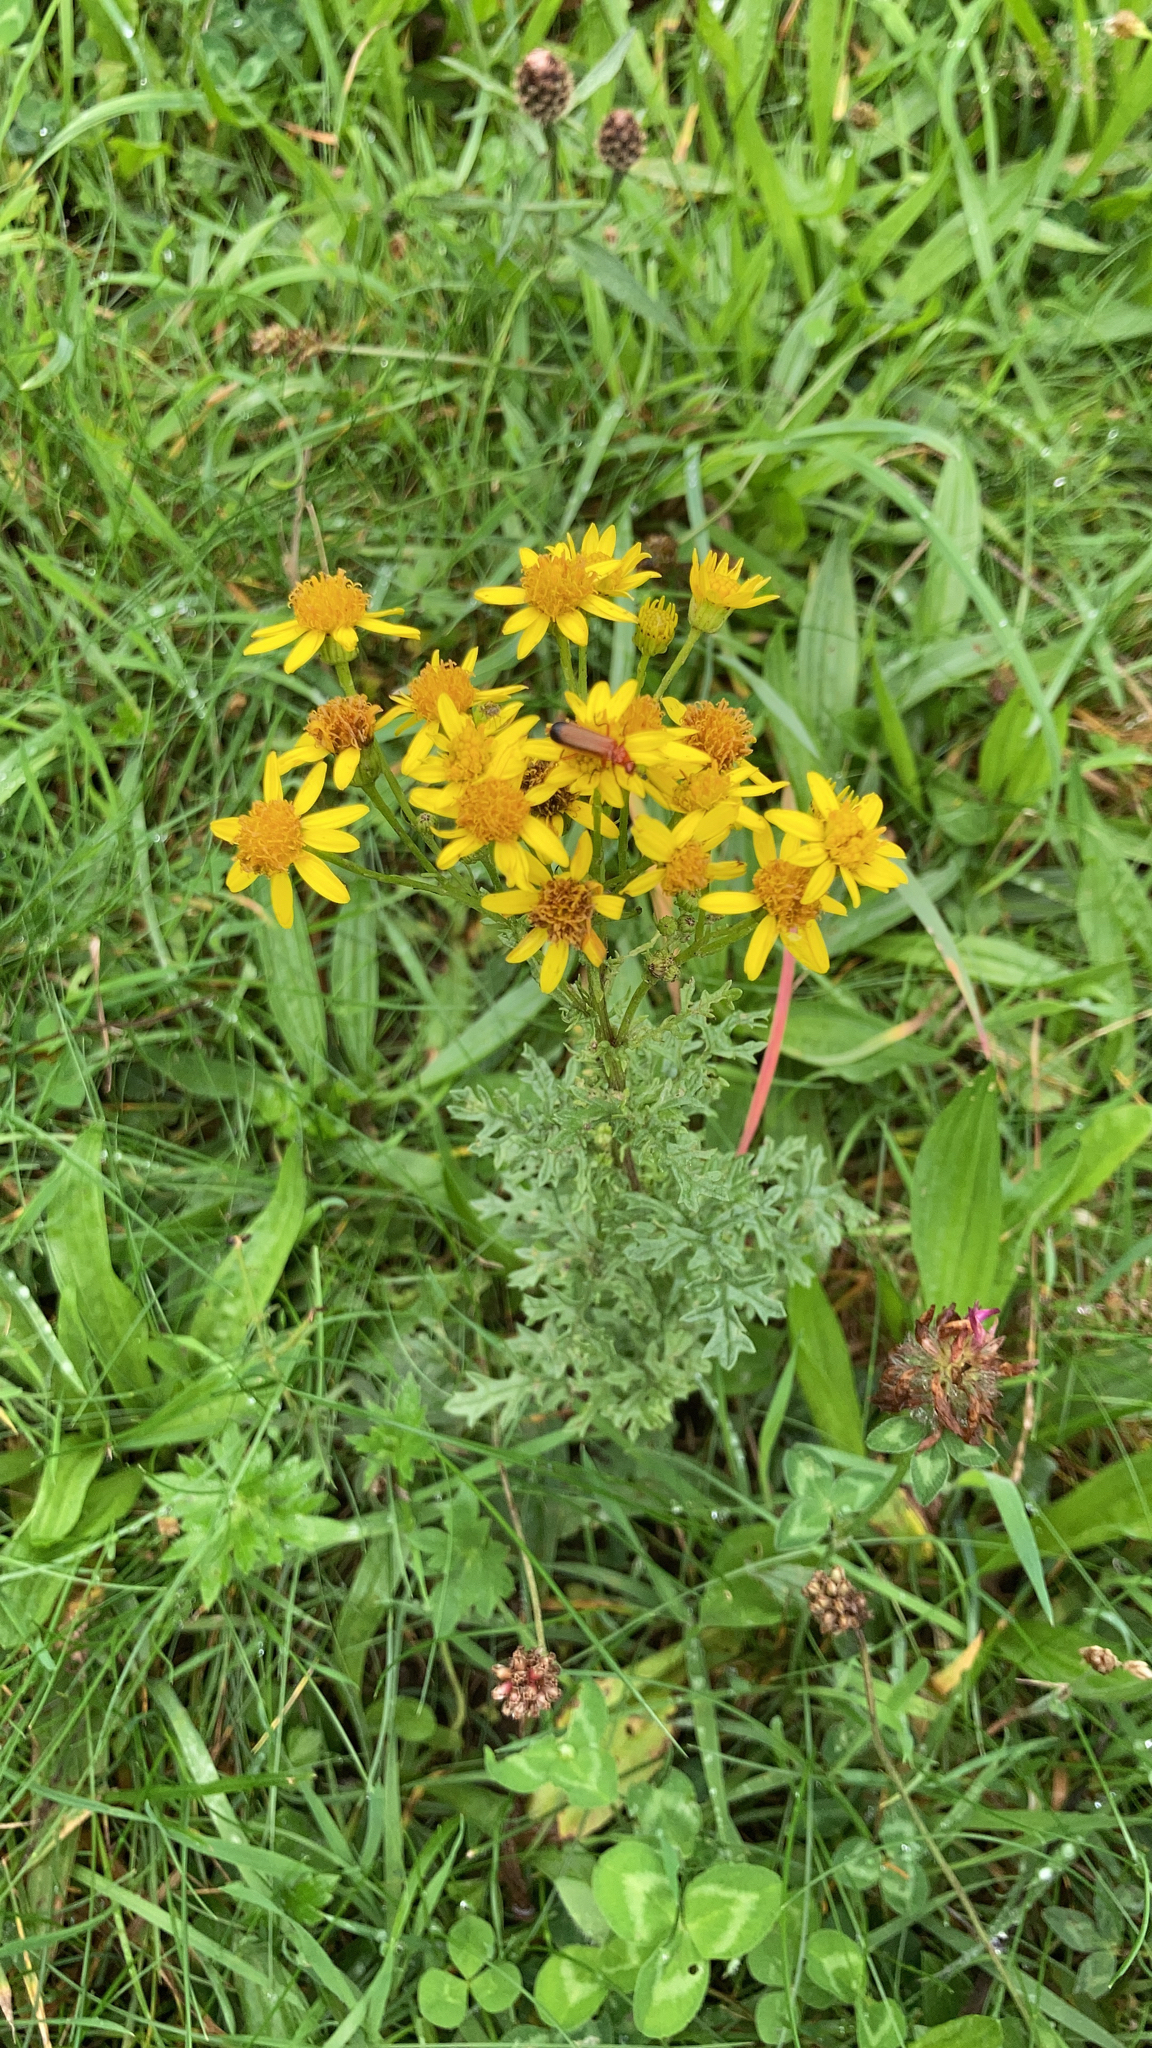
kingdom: Plantae
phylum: Tracheophyta
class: Magnoliopsida
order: Asterales
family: Asteraceae
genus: Jacobaea
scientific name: Jacobaea vulgaris
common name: Stinking willie
